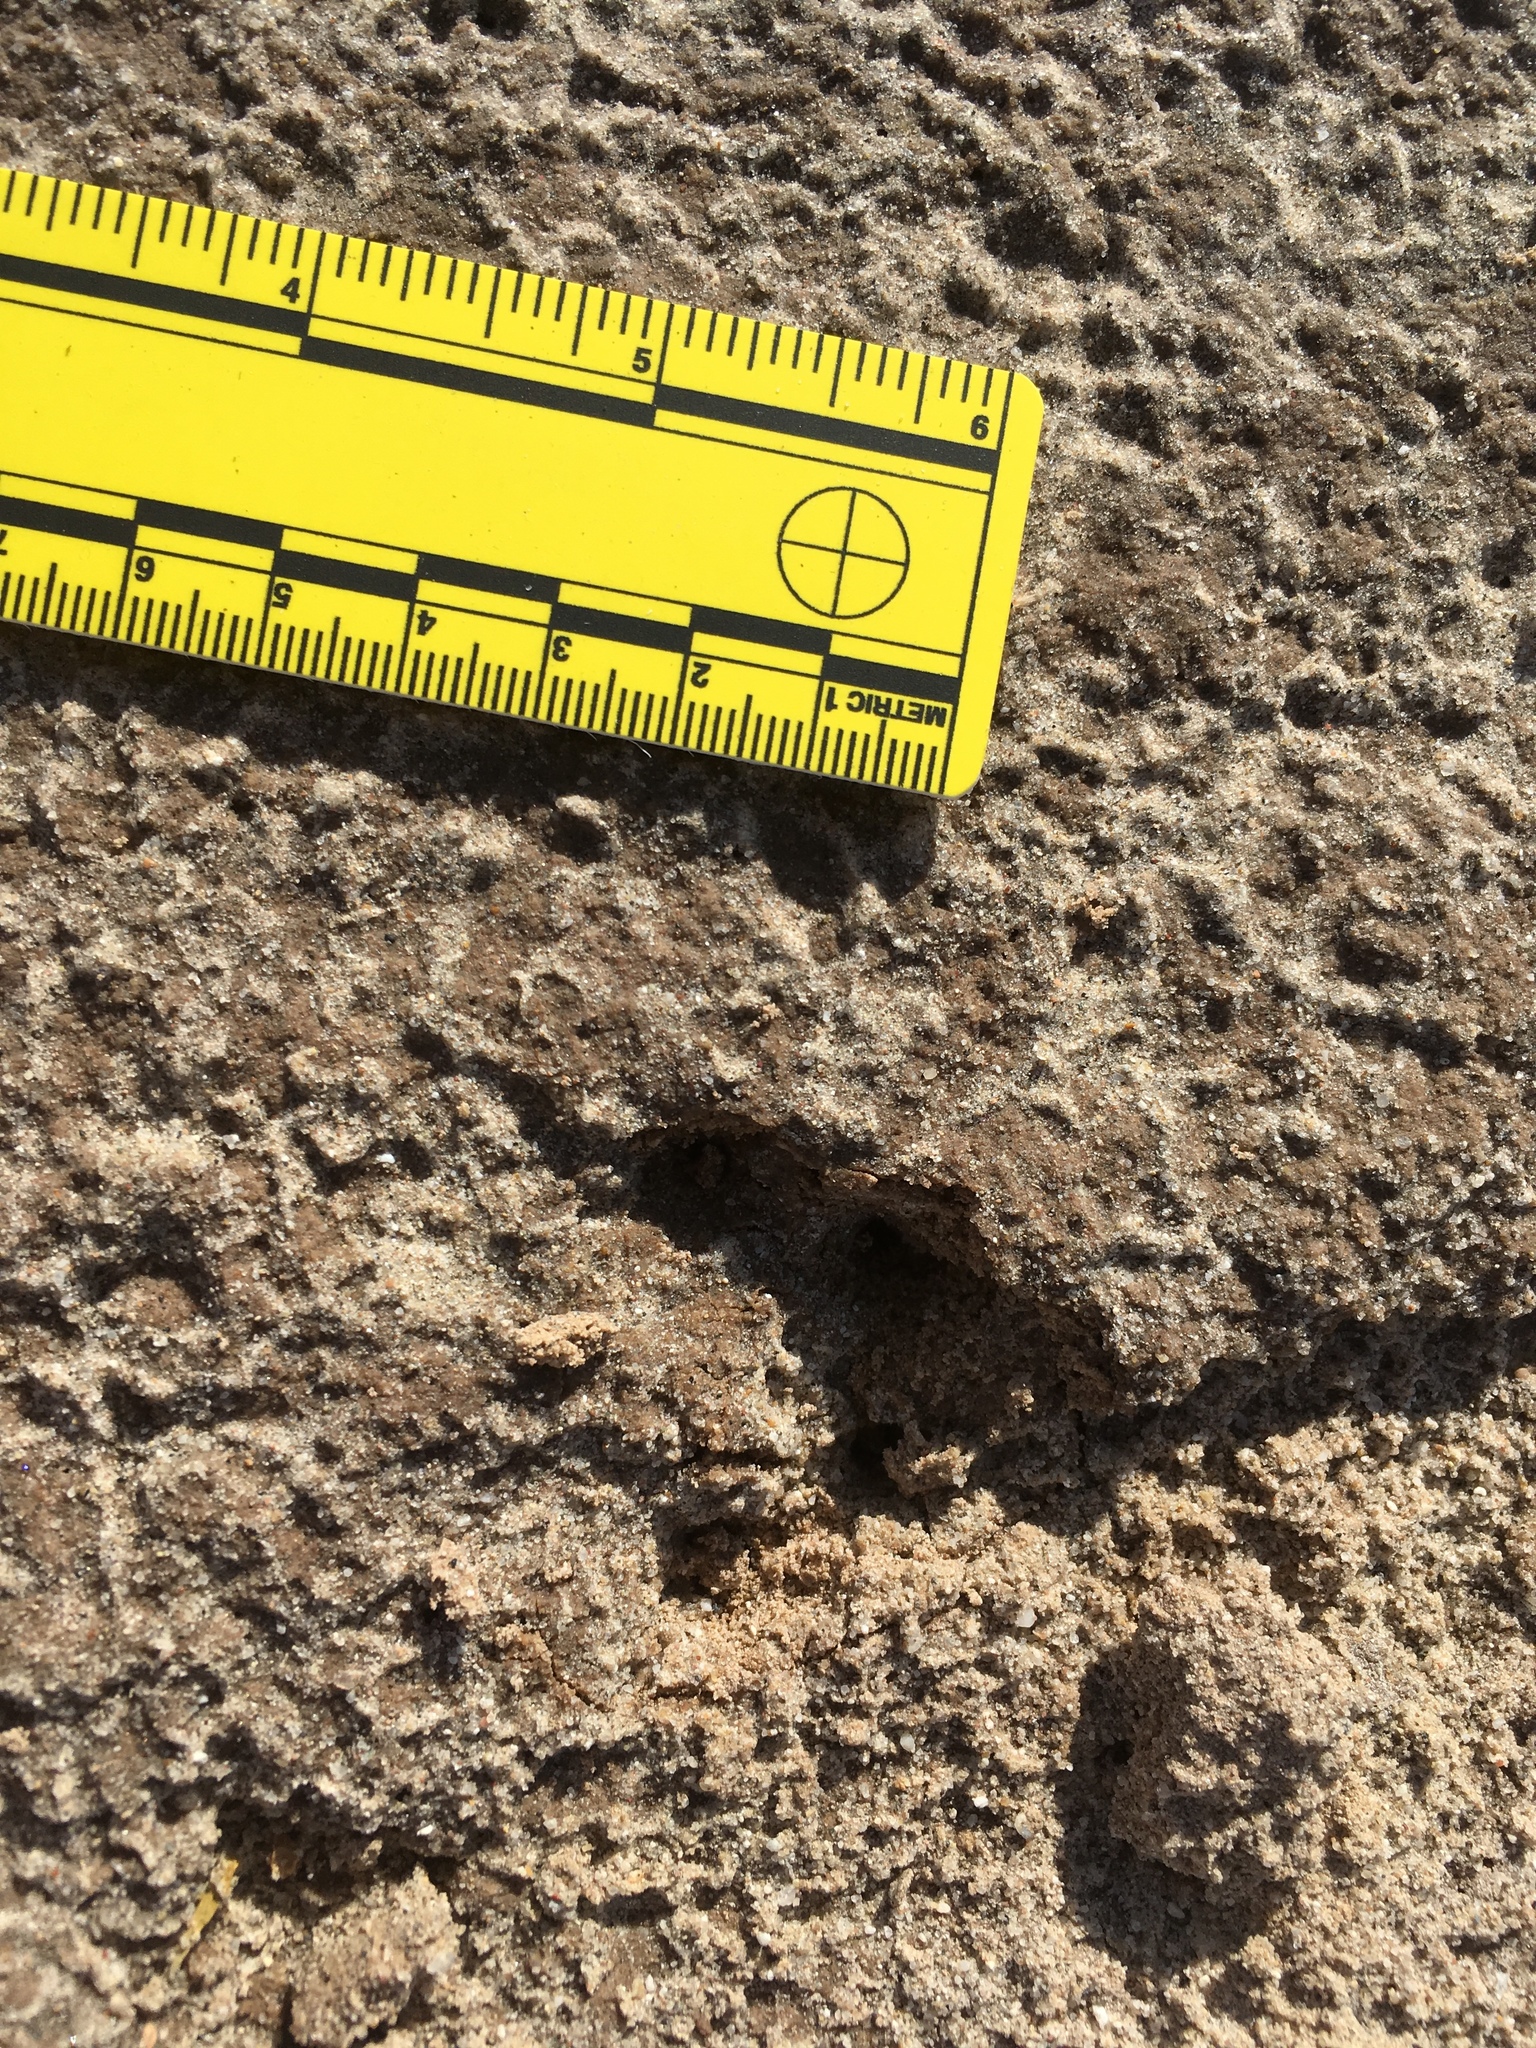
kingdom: Animalia
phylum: Chordata
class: Mammalia
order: Lagomorpha
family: Leporidae
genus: Lepus
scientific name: Lepus californicus
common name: Black-tailed jackrabbit
